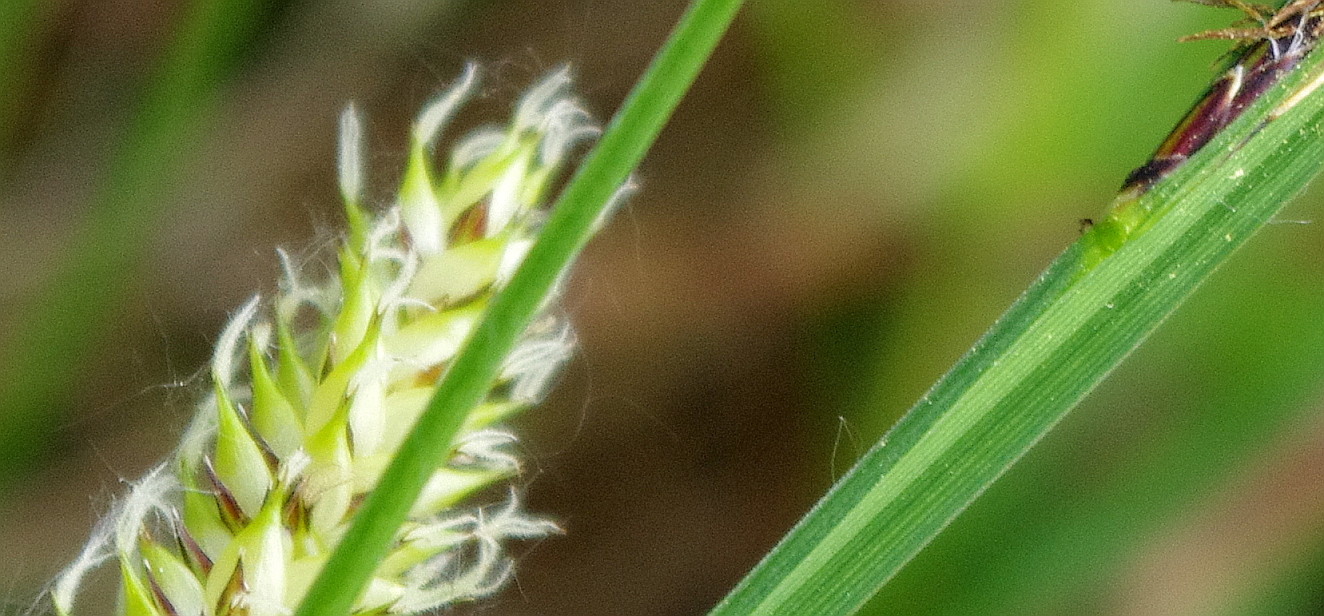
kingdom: Plantae
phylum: Tracheophyta
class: Liliopsida
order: Poales
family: Cyperaceae
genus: Carex
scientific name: Carex vesicaria
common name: Bladder-sedge
